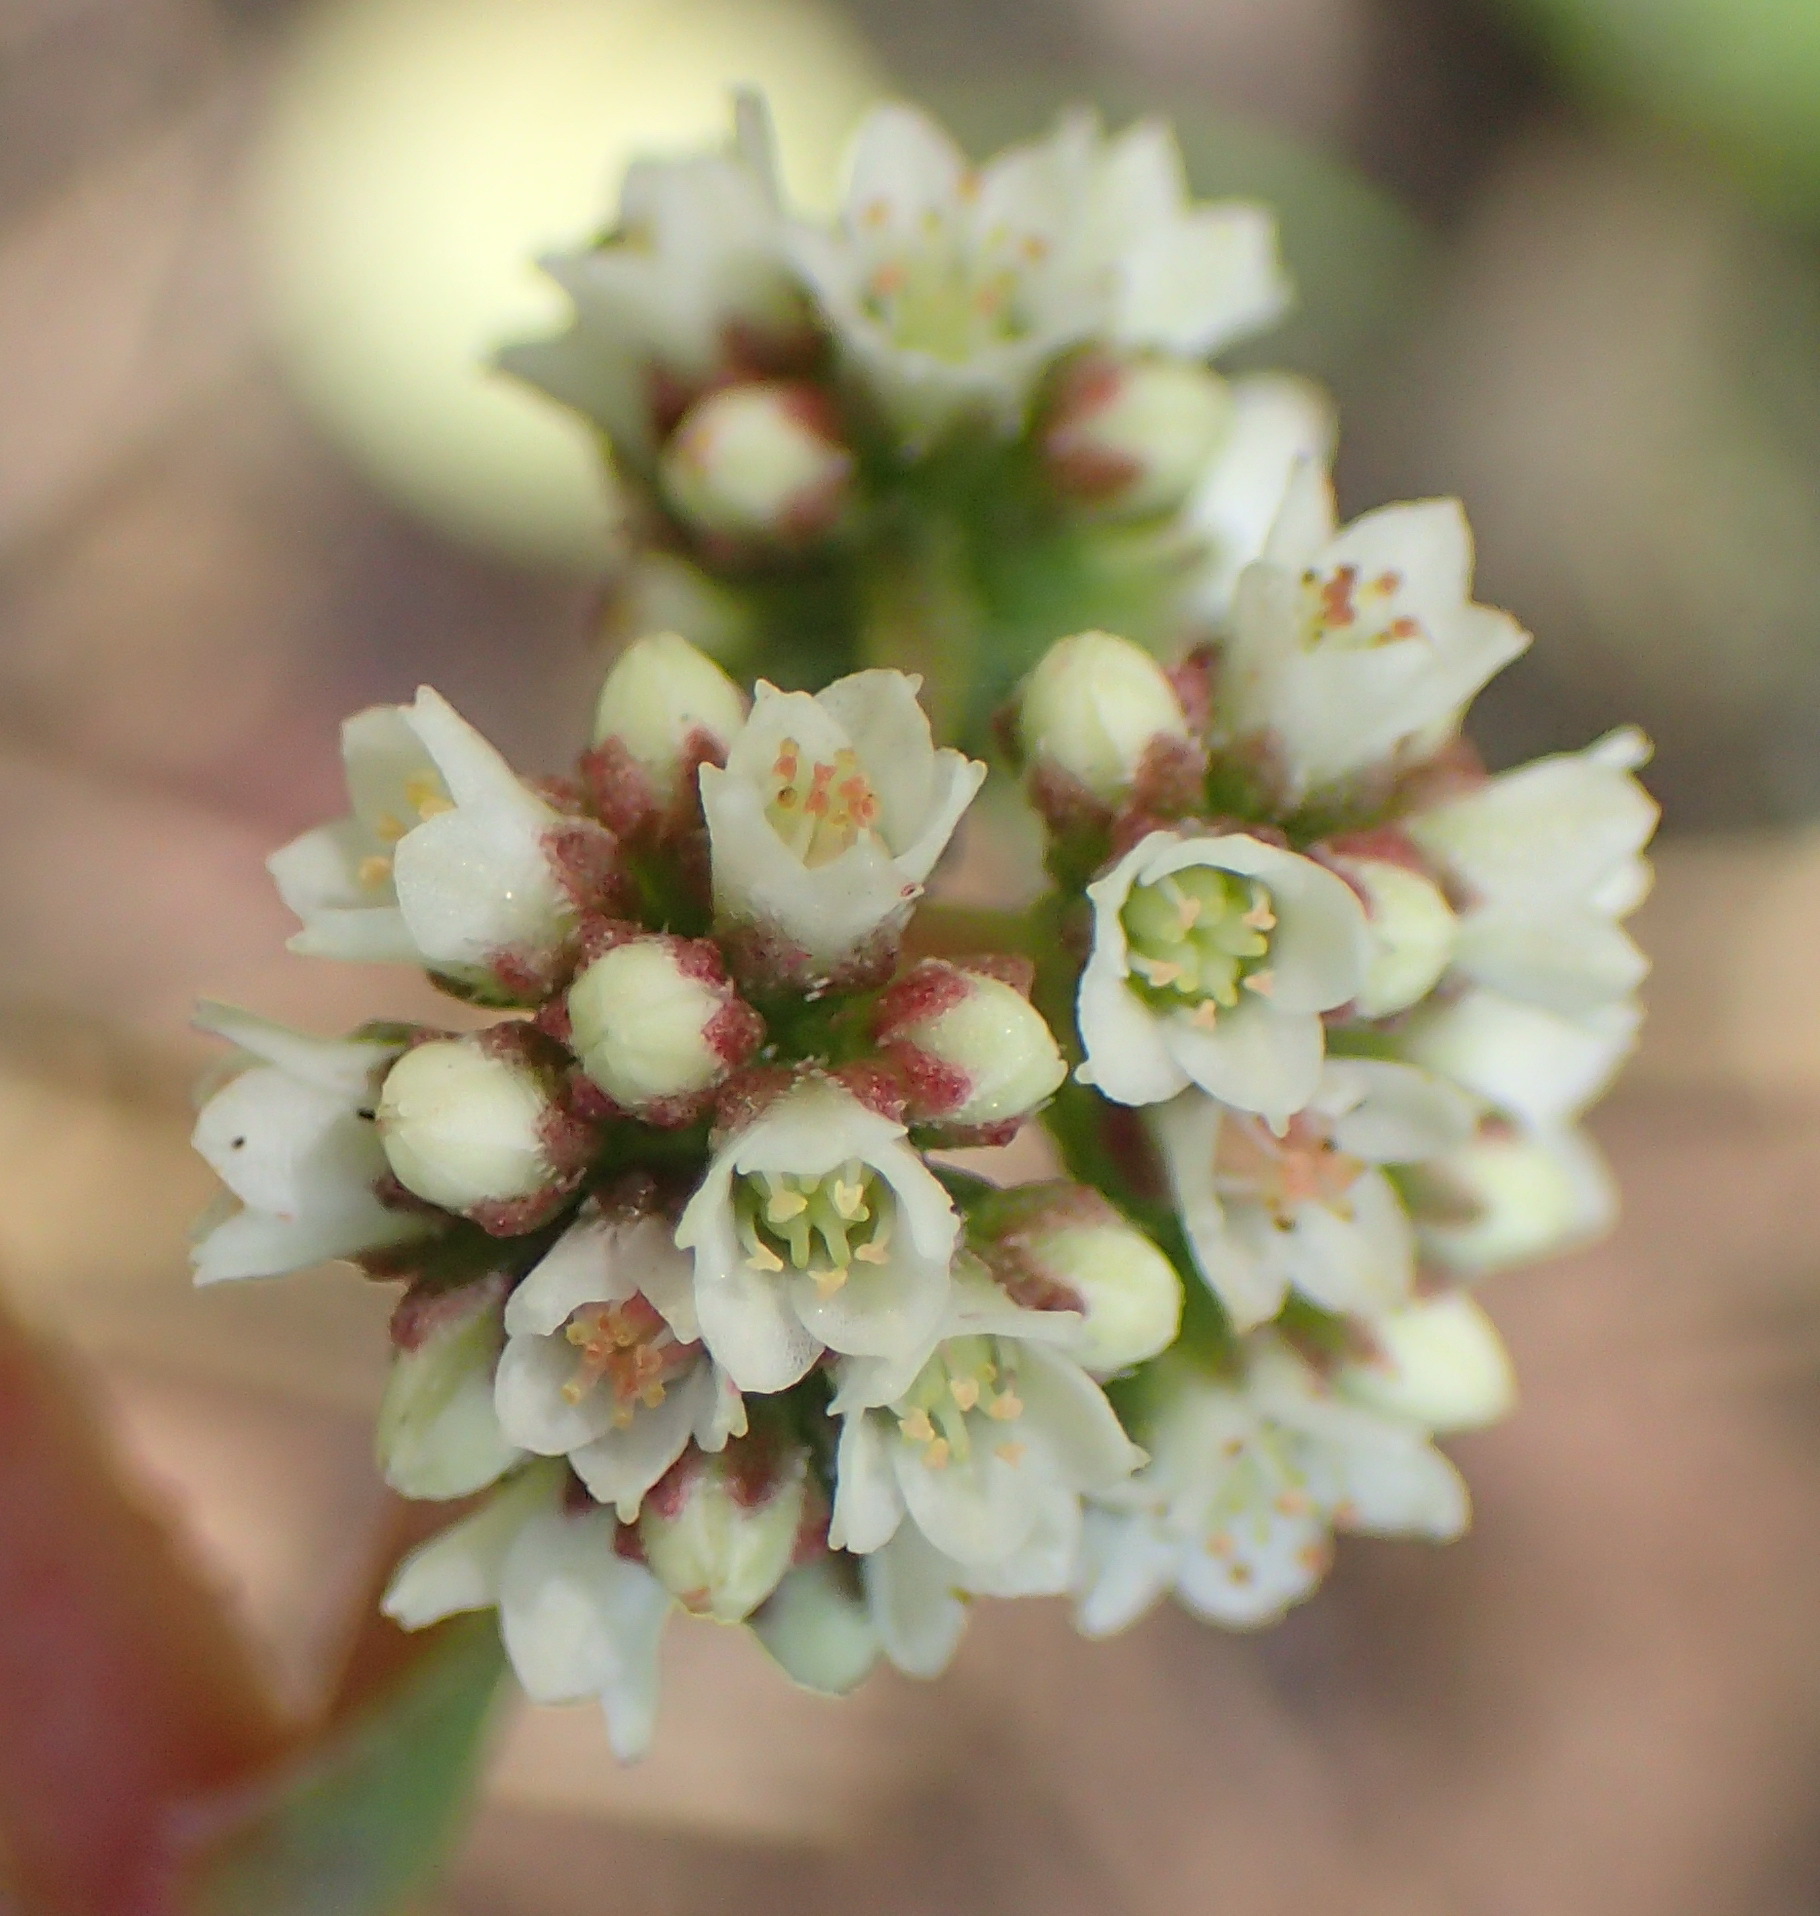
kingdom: Plantae
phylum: Tracheophyta
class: Magnoliopsida
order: Saxifragales
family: Crassulaceae
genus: Crassula
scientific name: Crassula orbicularis
